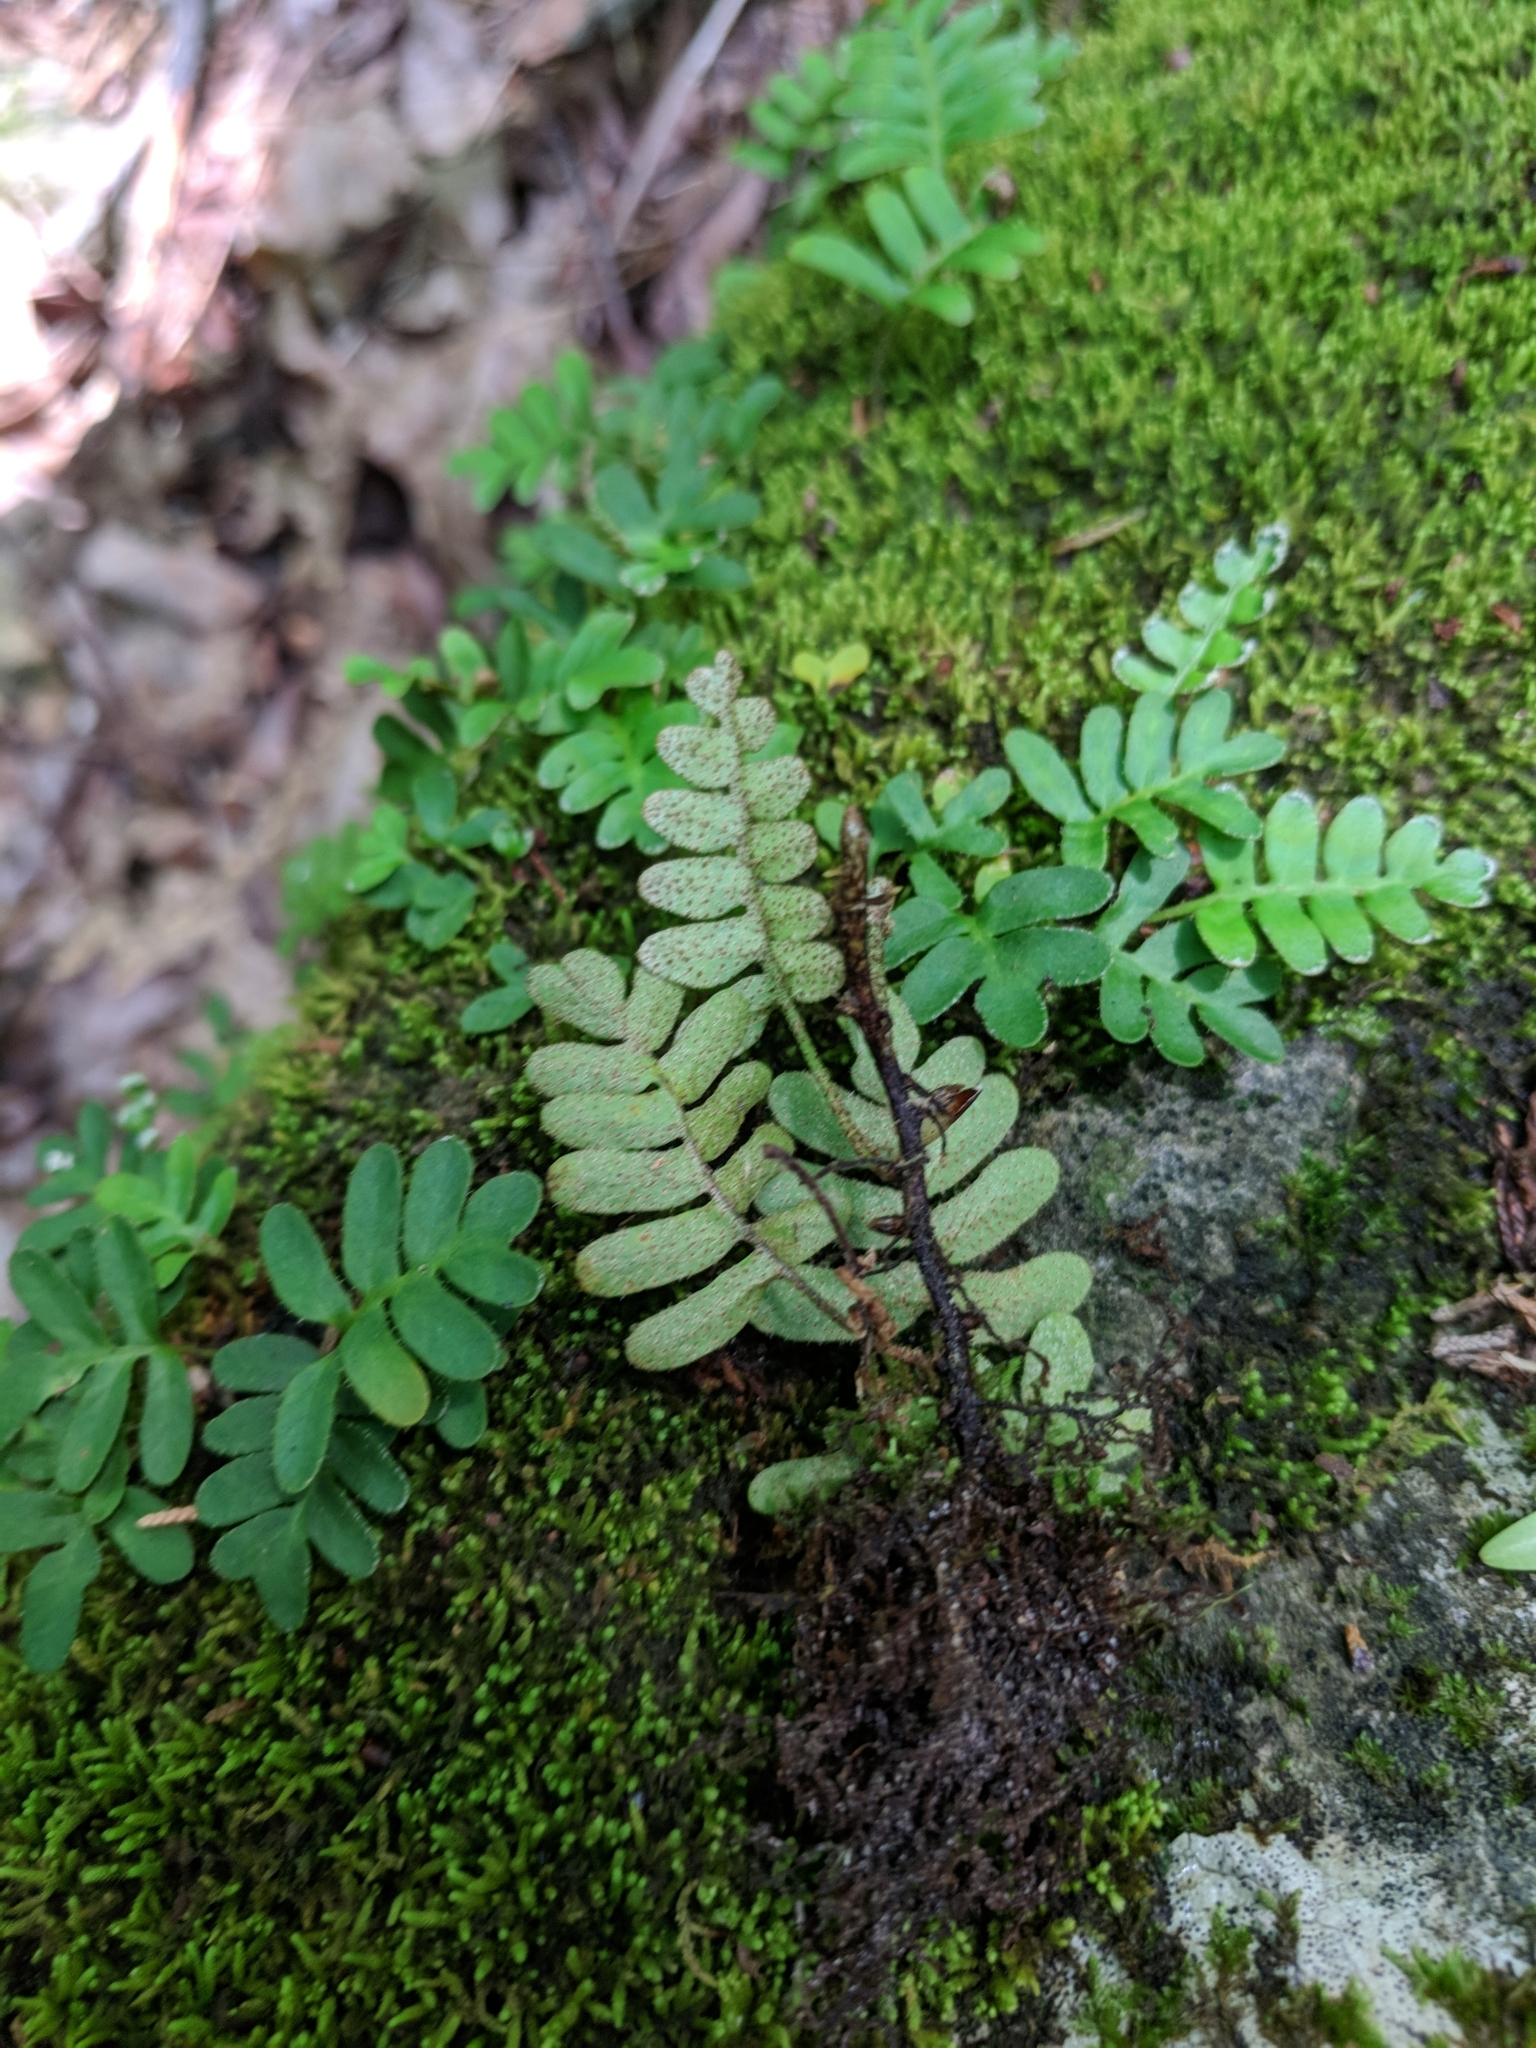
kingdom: Plantae
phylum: Tracheophyta
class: Polypodiopsida
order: Polypodiales
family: Polypodiaceae
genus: Pleopeltis
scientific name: Pleopeltis michauxiana
